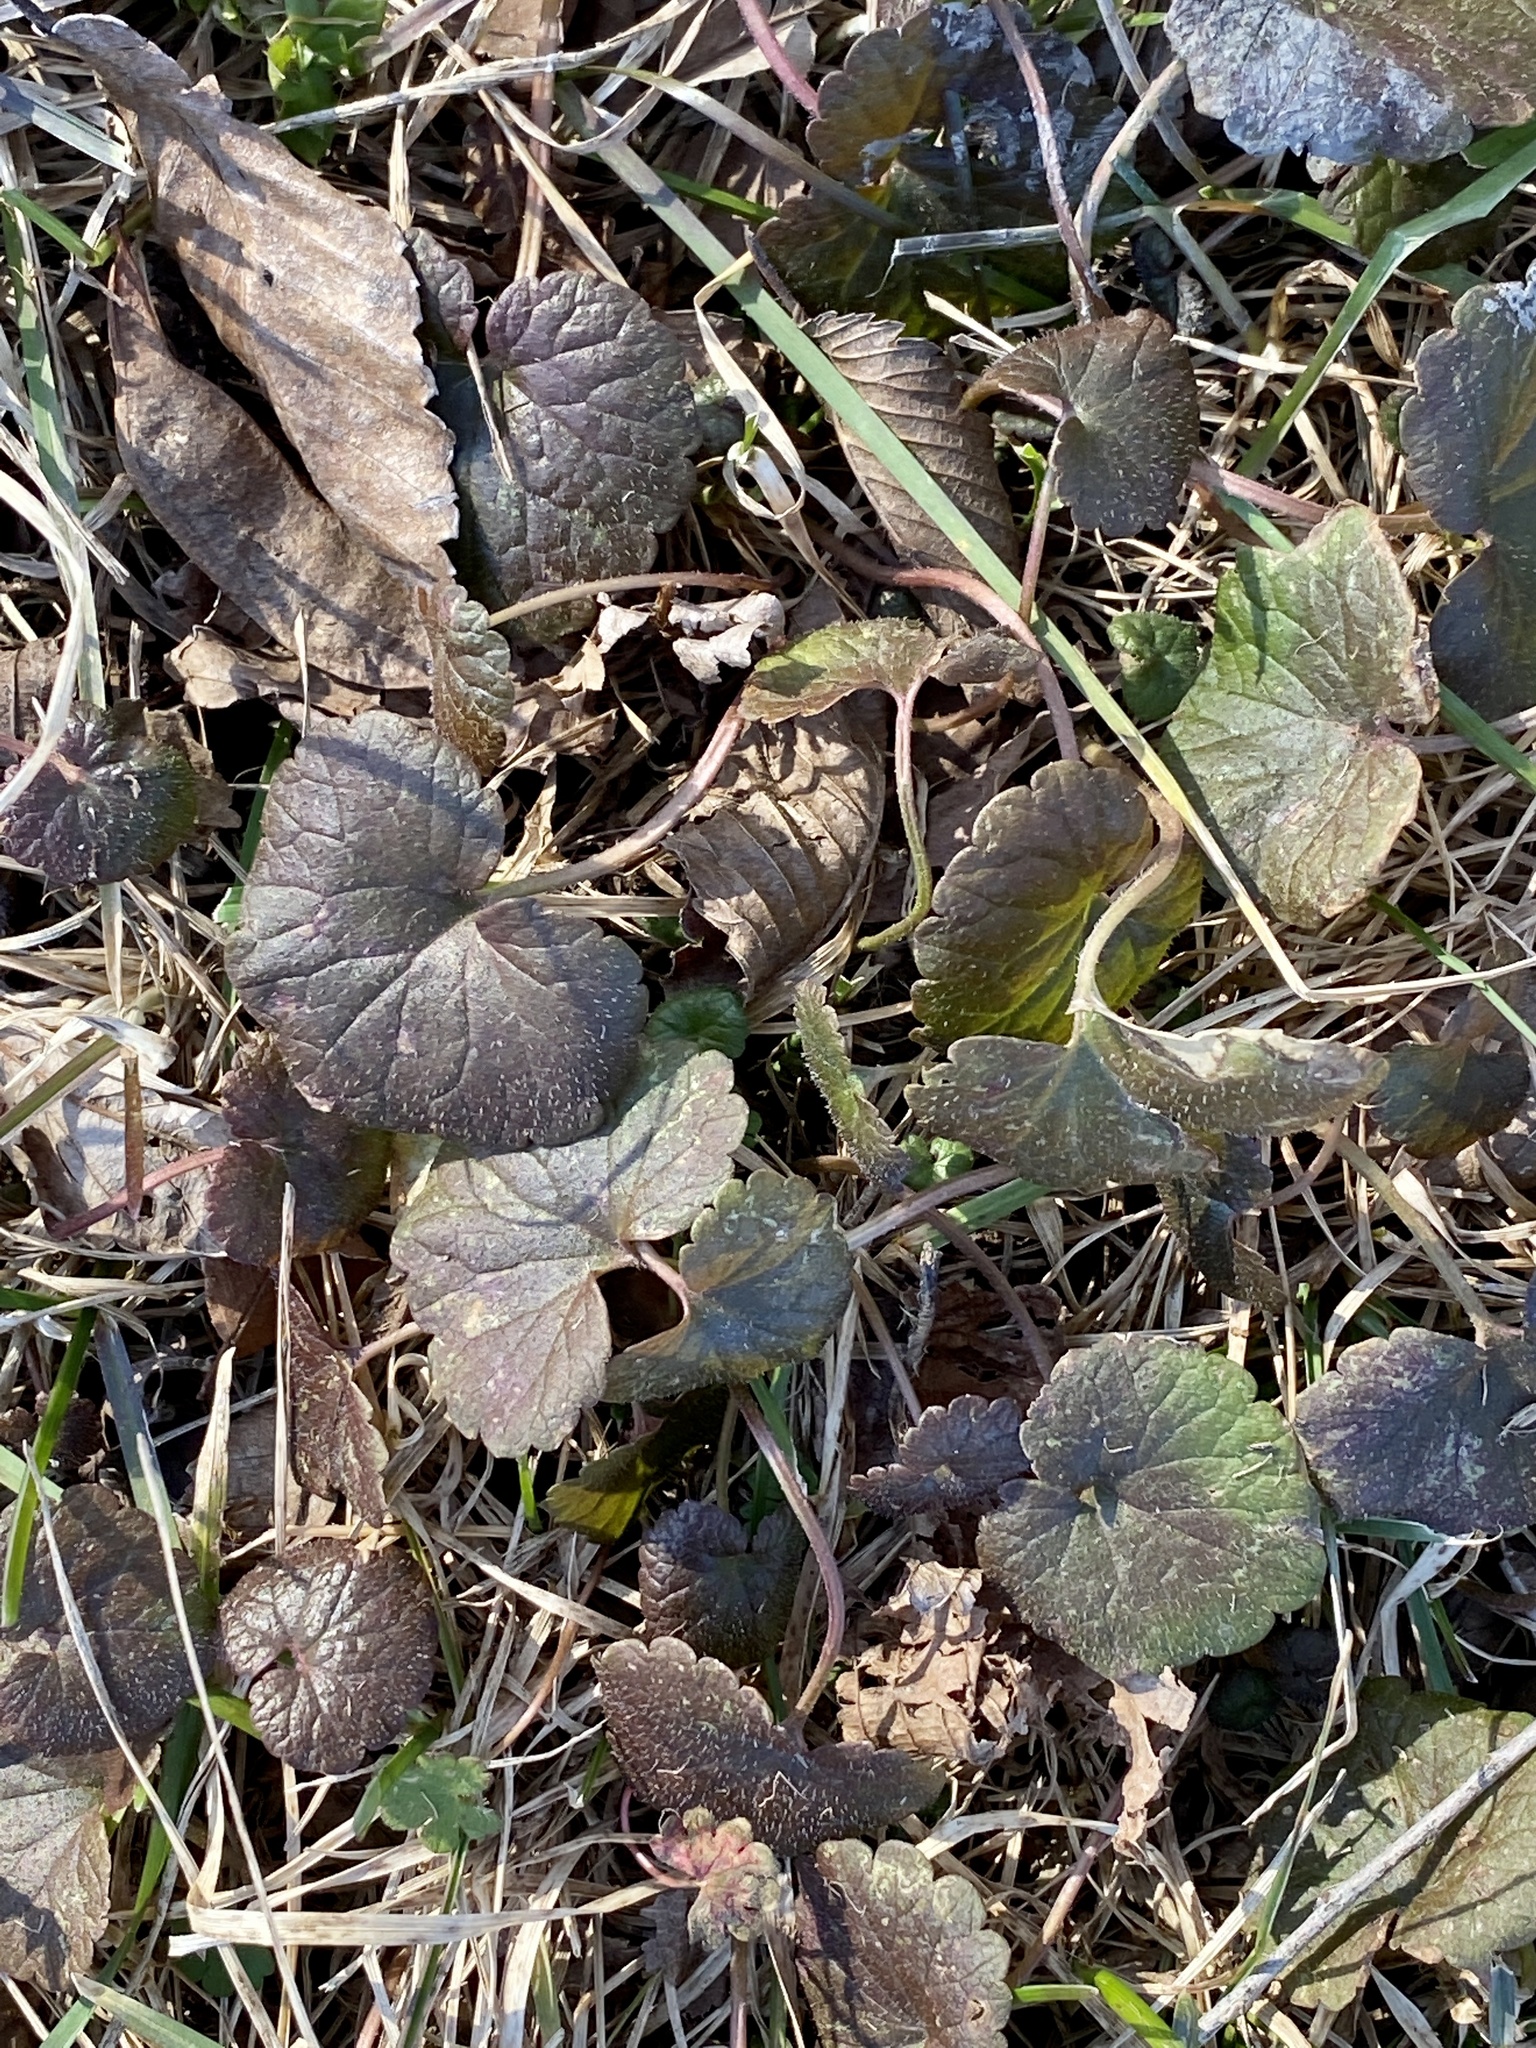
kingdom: Plantae
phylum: Tracheophyta
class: Magnoliopsida
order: Lamiales
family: Lamiaceae
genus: Glechoma
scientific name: Glechoma hederacea
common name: Ground ivy
